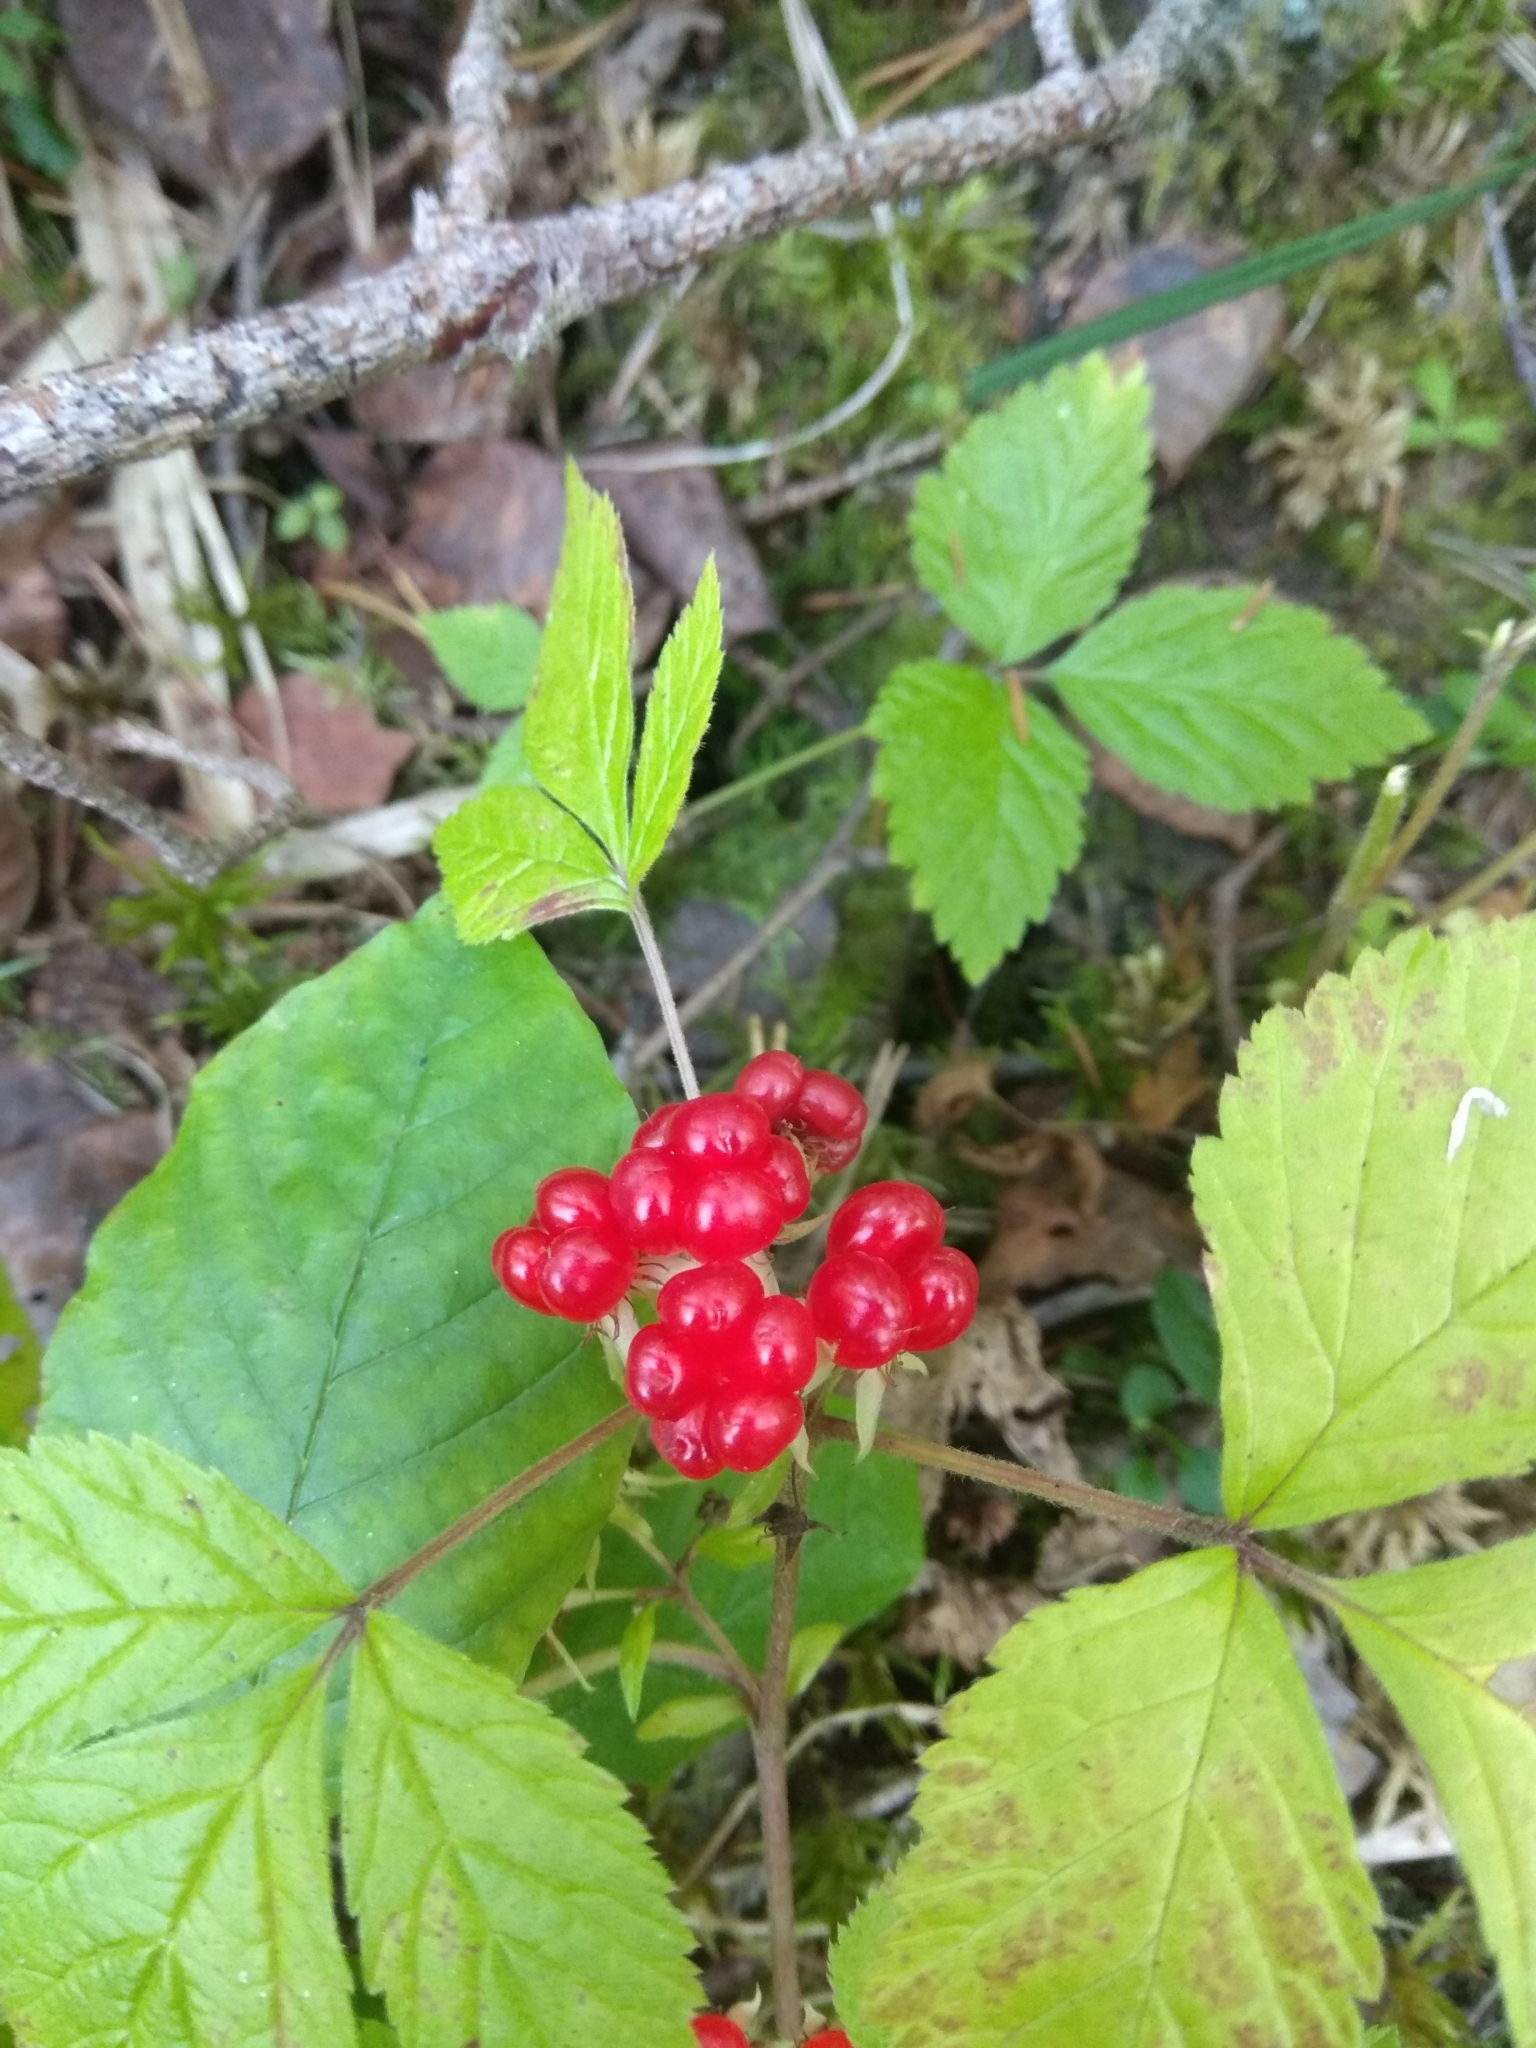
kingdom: Plantae
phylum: Tracheophyta
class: Magnoliopsida
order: Rosales
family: Rosaceae
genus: Rubus
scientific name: Rubus saxatilis
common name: Stone bramble
